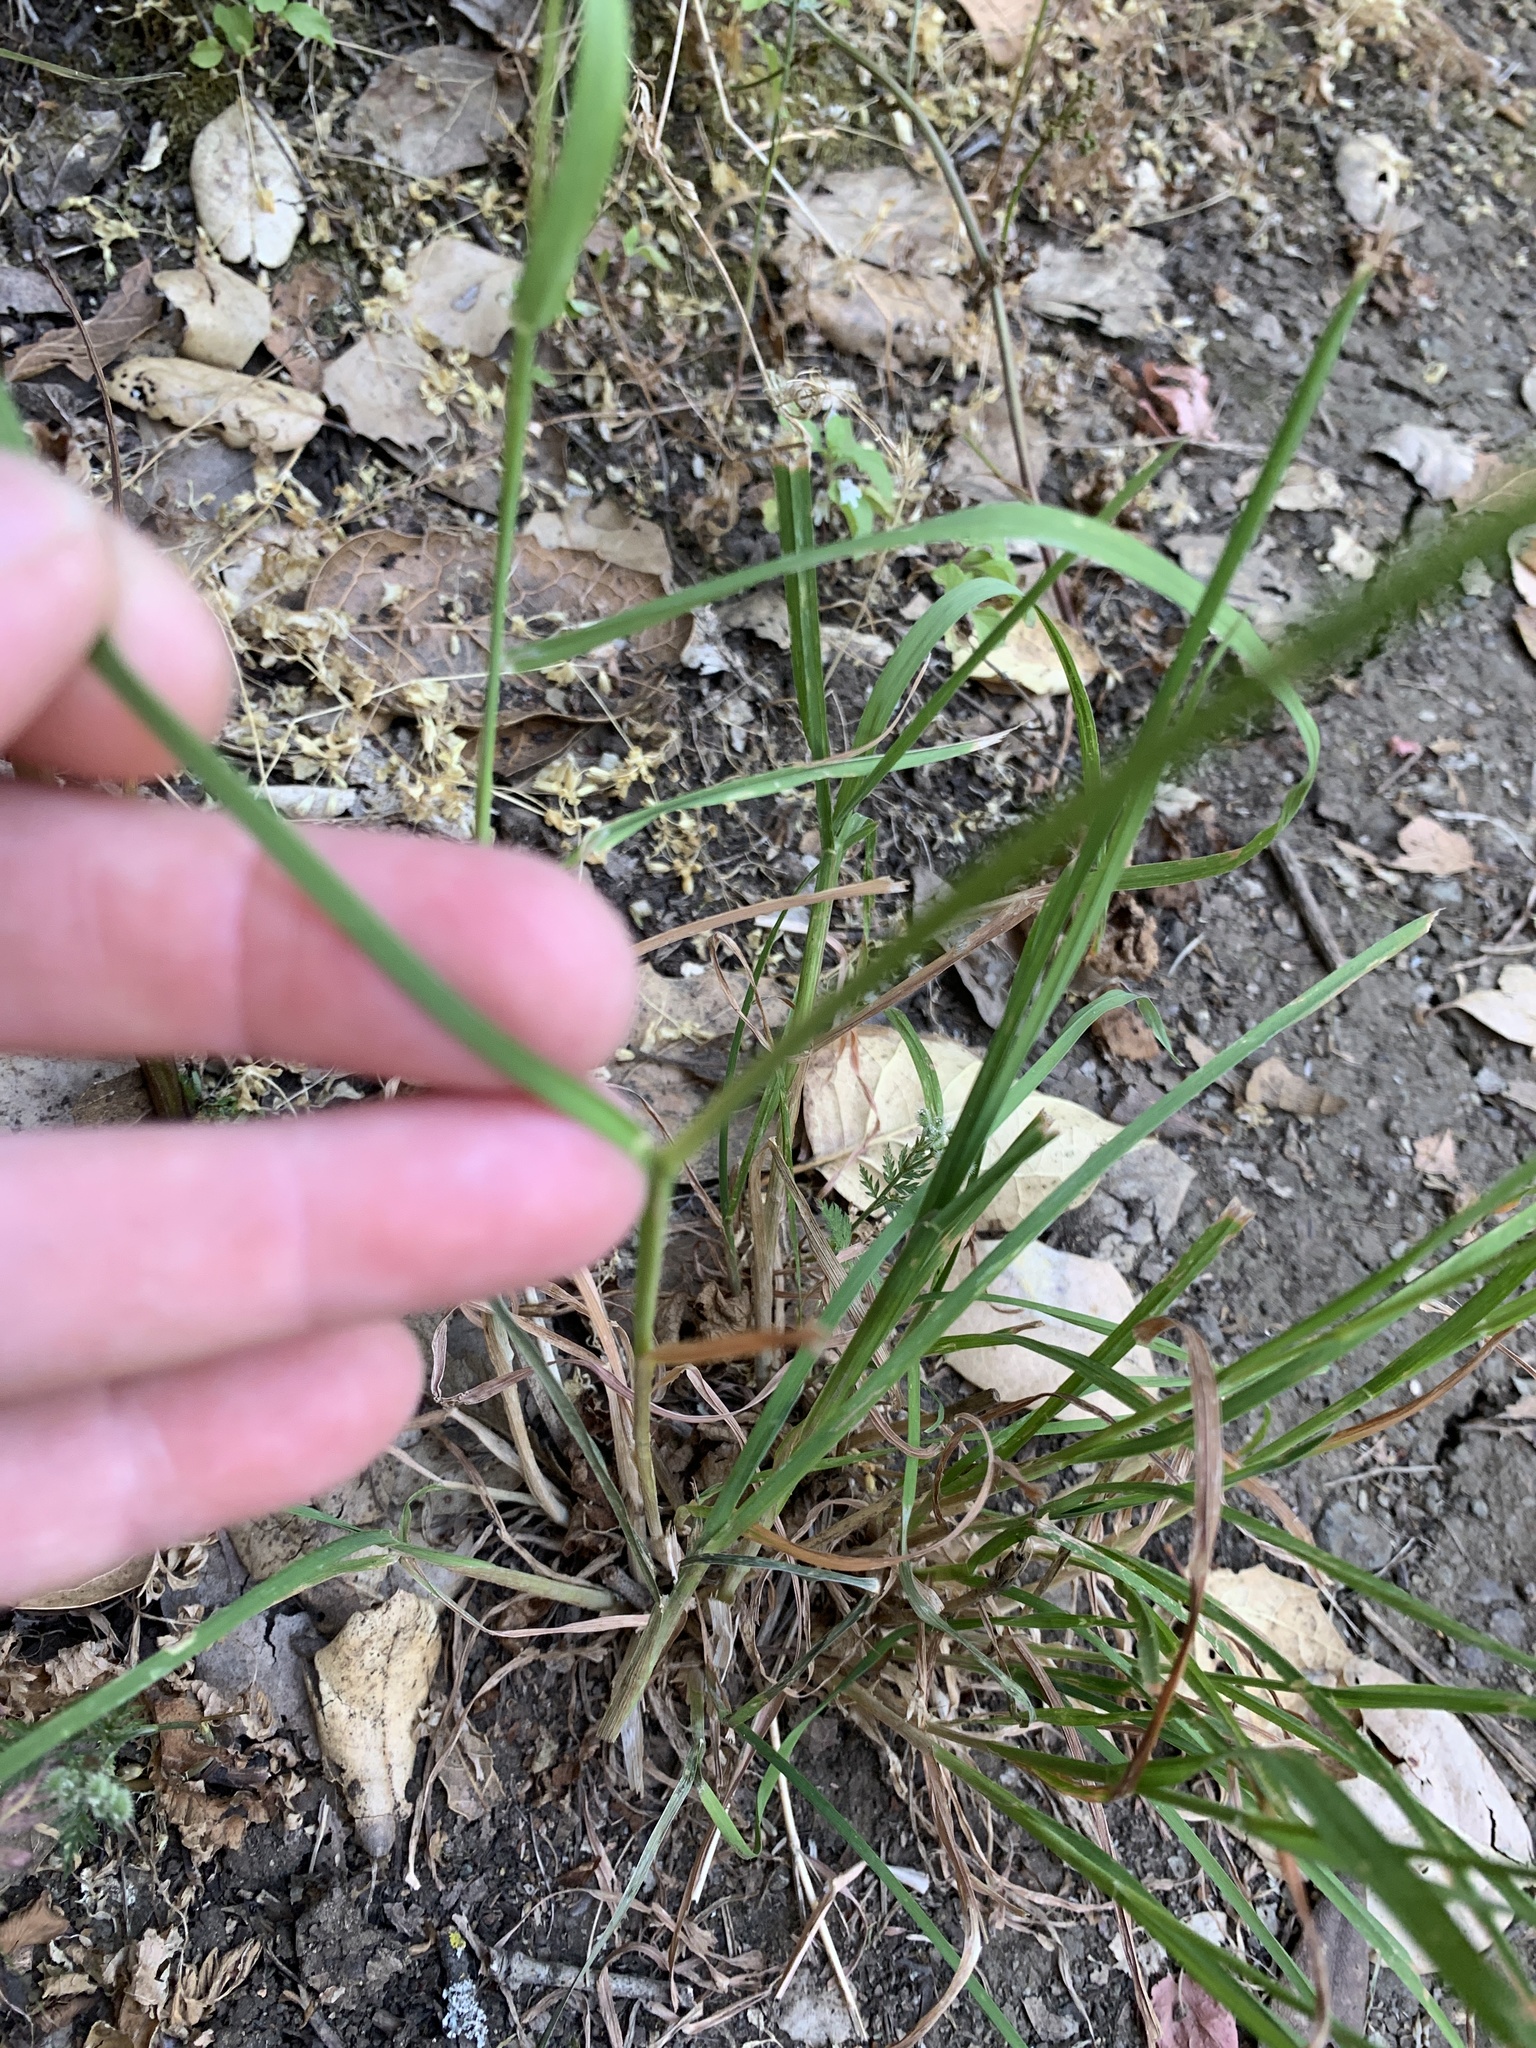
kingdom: Plantae
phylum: Tracheophyta
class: Liliopsida
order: Poales
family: Poaceae
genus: Dactylis
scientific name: Dactylis glomerata
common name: Orchardgrass
